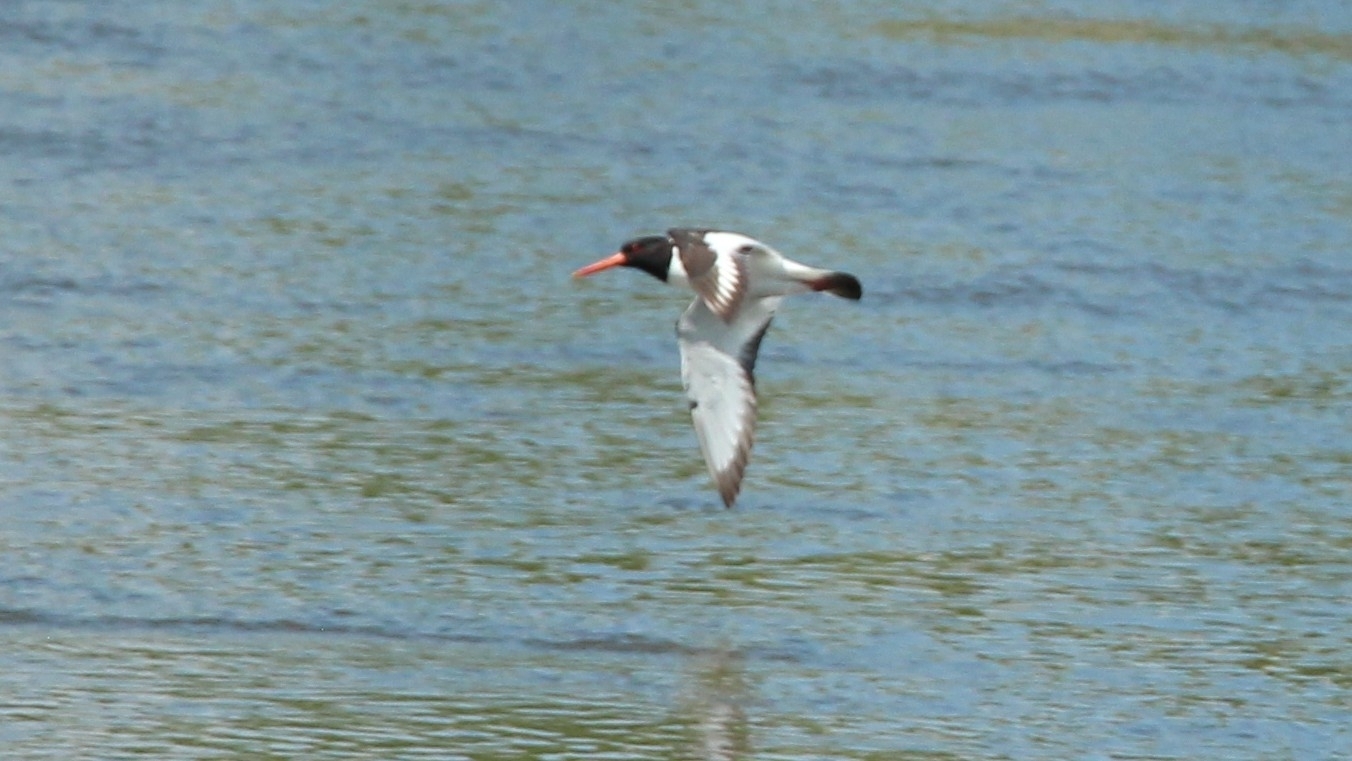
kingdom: Animalia
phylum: Chordata
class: Aves
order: Charadriiformes
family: Haematopodidae
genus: Haematopus
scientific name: Haematopus ostralegus
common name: Eurasian oystercatcher
